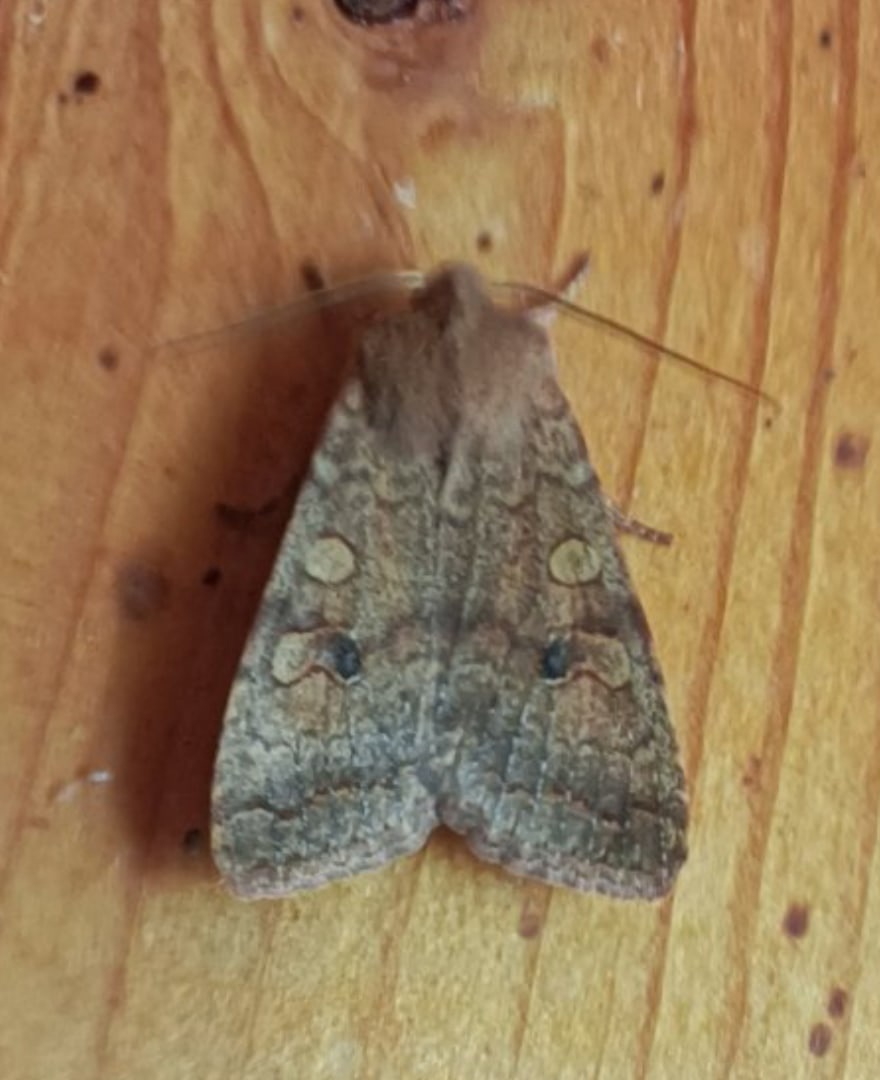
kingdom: Animalia
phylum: Arthropoda
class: Insecta
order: Lepidoptera
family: Noctuidae
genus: Sunira
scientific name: Sunira circellaris
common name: Brick
